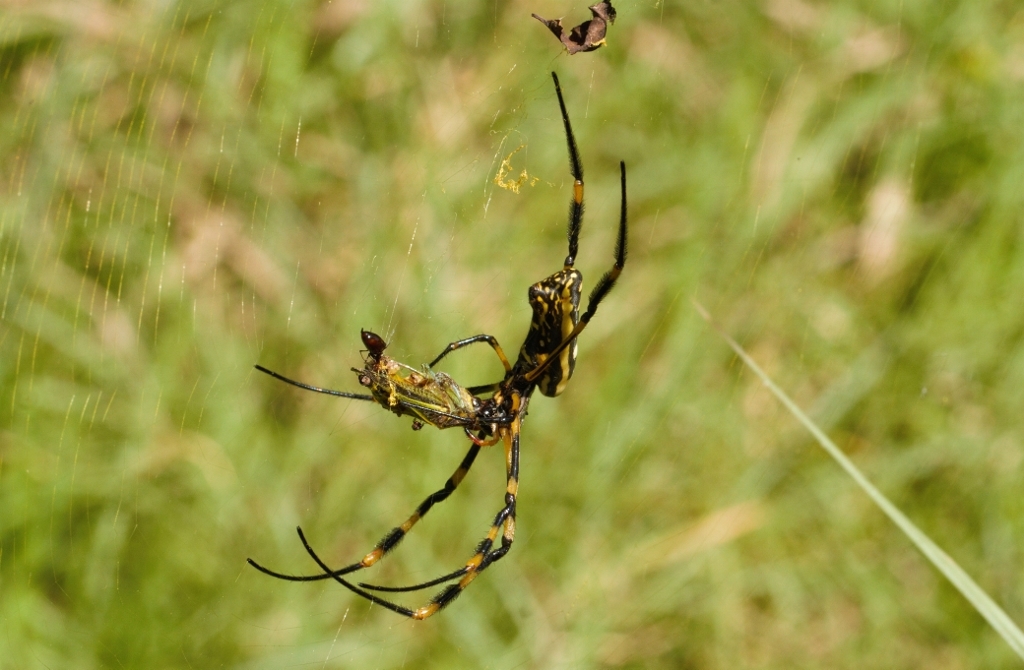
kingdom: Animalia
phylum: Arthropoda
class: Arachnida
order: Araneae
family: Araneidae
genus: Trichonephila
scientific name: Trichonephila senegalensis
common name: Banded golden orb weaver
